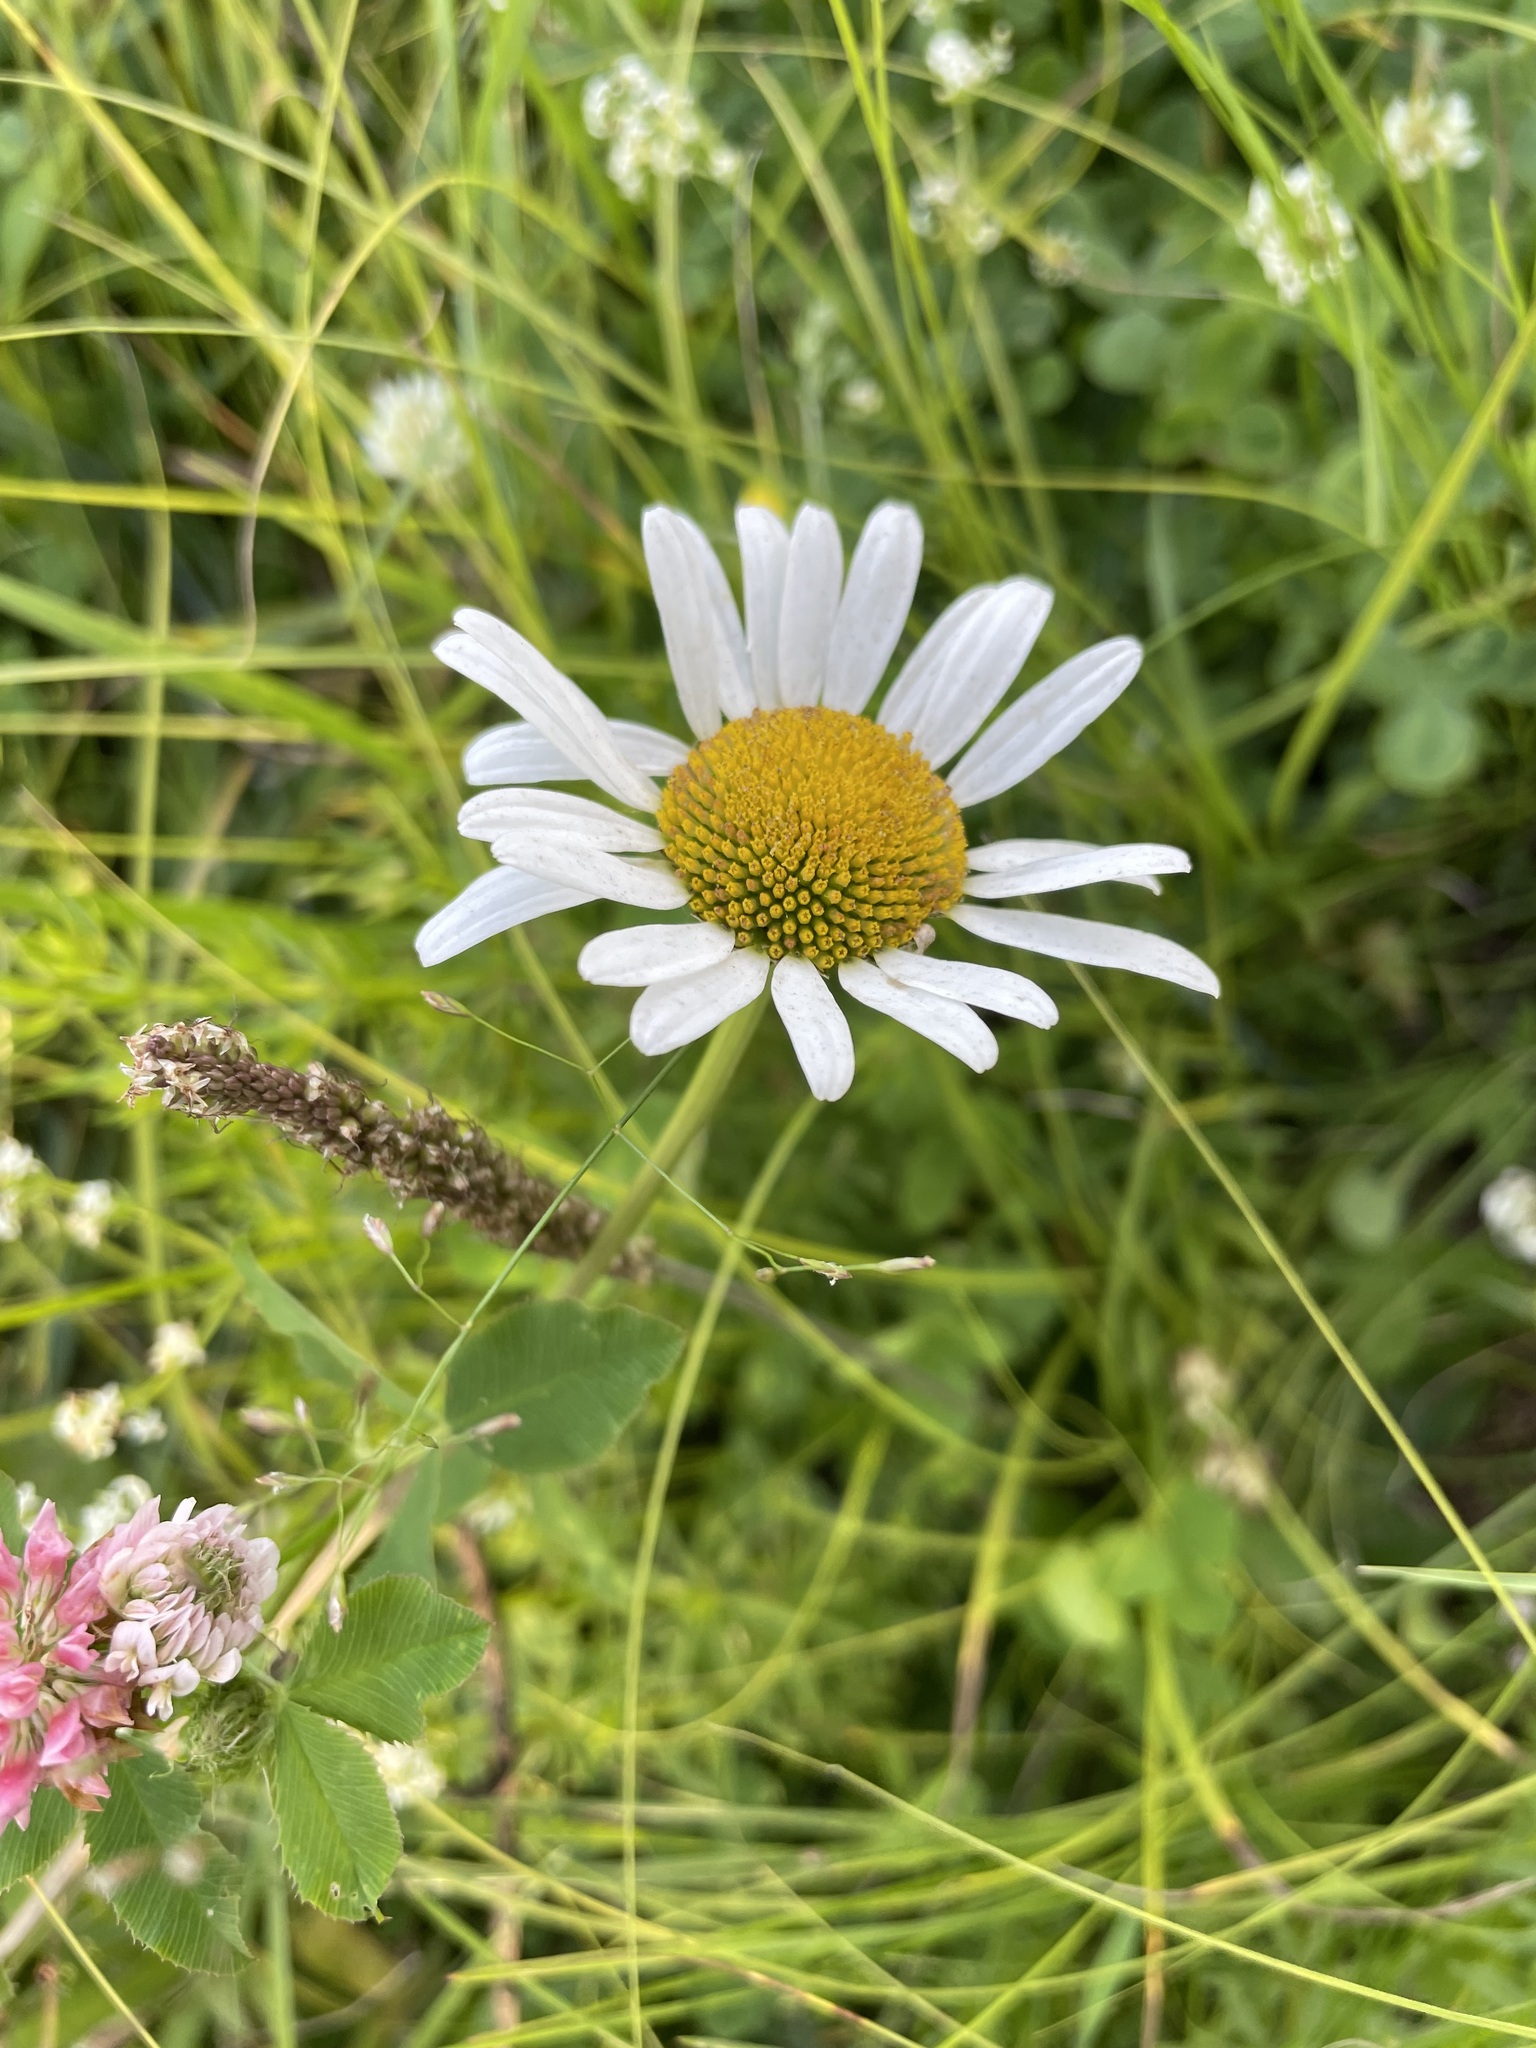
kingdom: Plantae
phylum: Tracheophyta
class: Magnoliopsida
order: Asterales
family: Asteraceae
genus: Leucanthemum
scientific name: Leucanthemum vulgare
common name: Oxeye daisy
